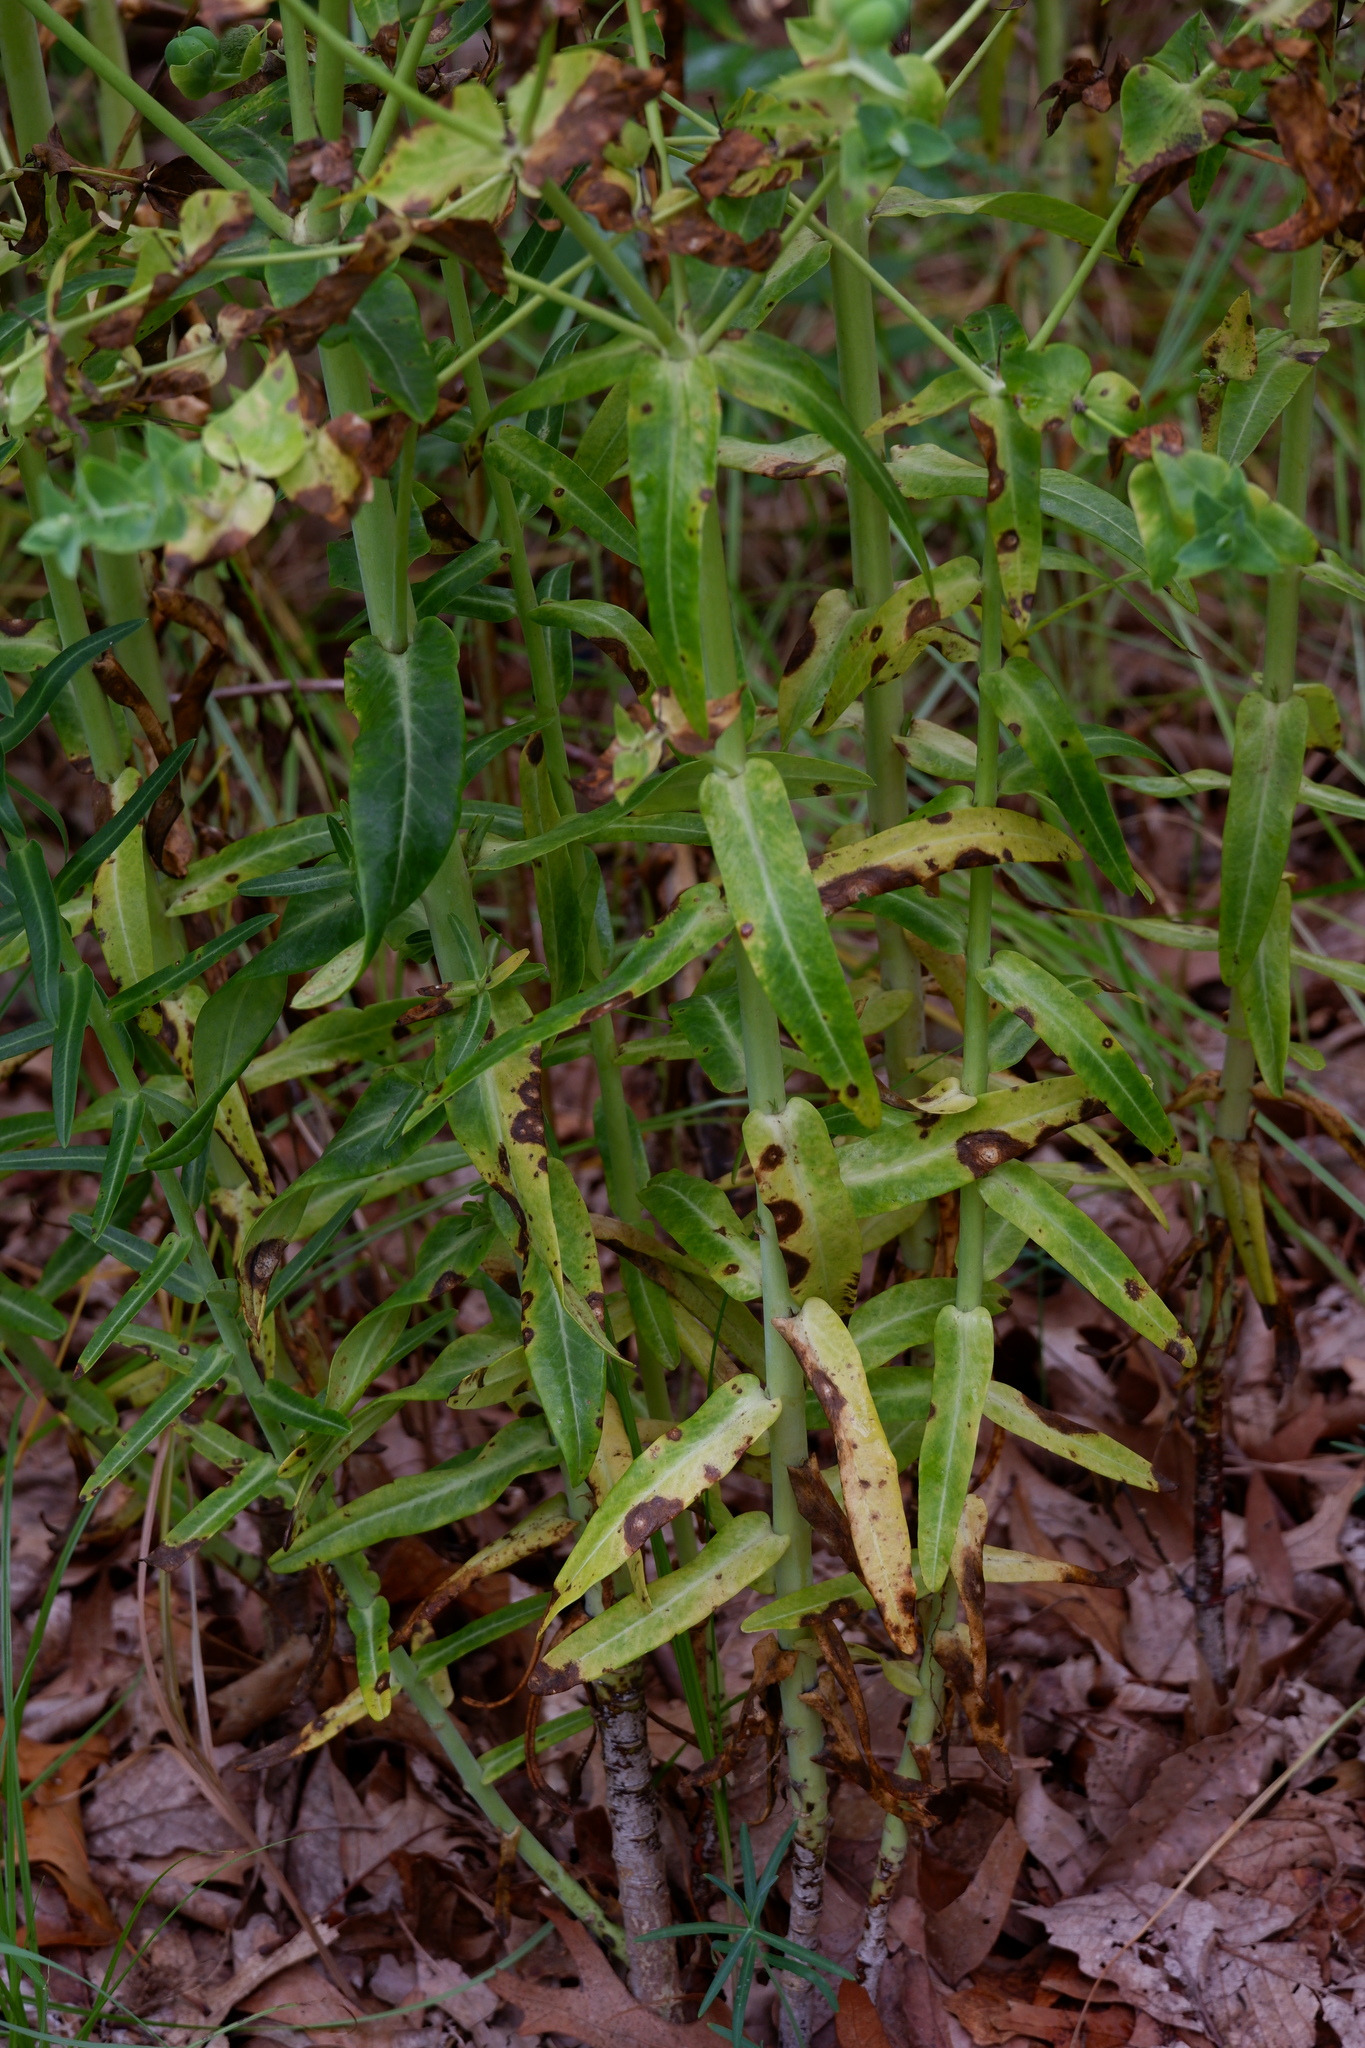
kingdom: Plantae
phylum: Tracheophyta
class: Magnoliopsida
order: Malpighiales
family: Euphorbiaceae
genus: Euphorbia
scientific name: Euphorbia lathyris
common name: Caper spurge
